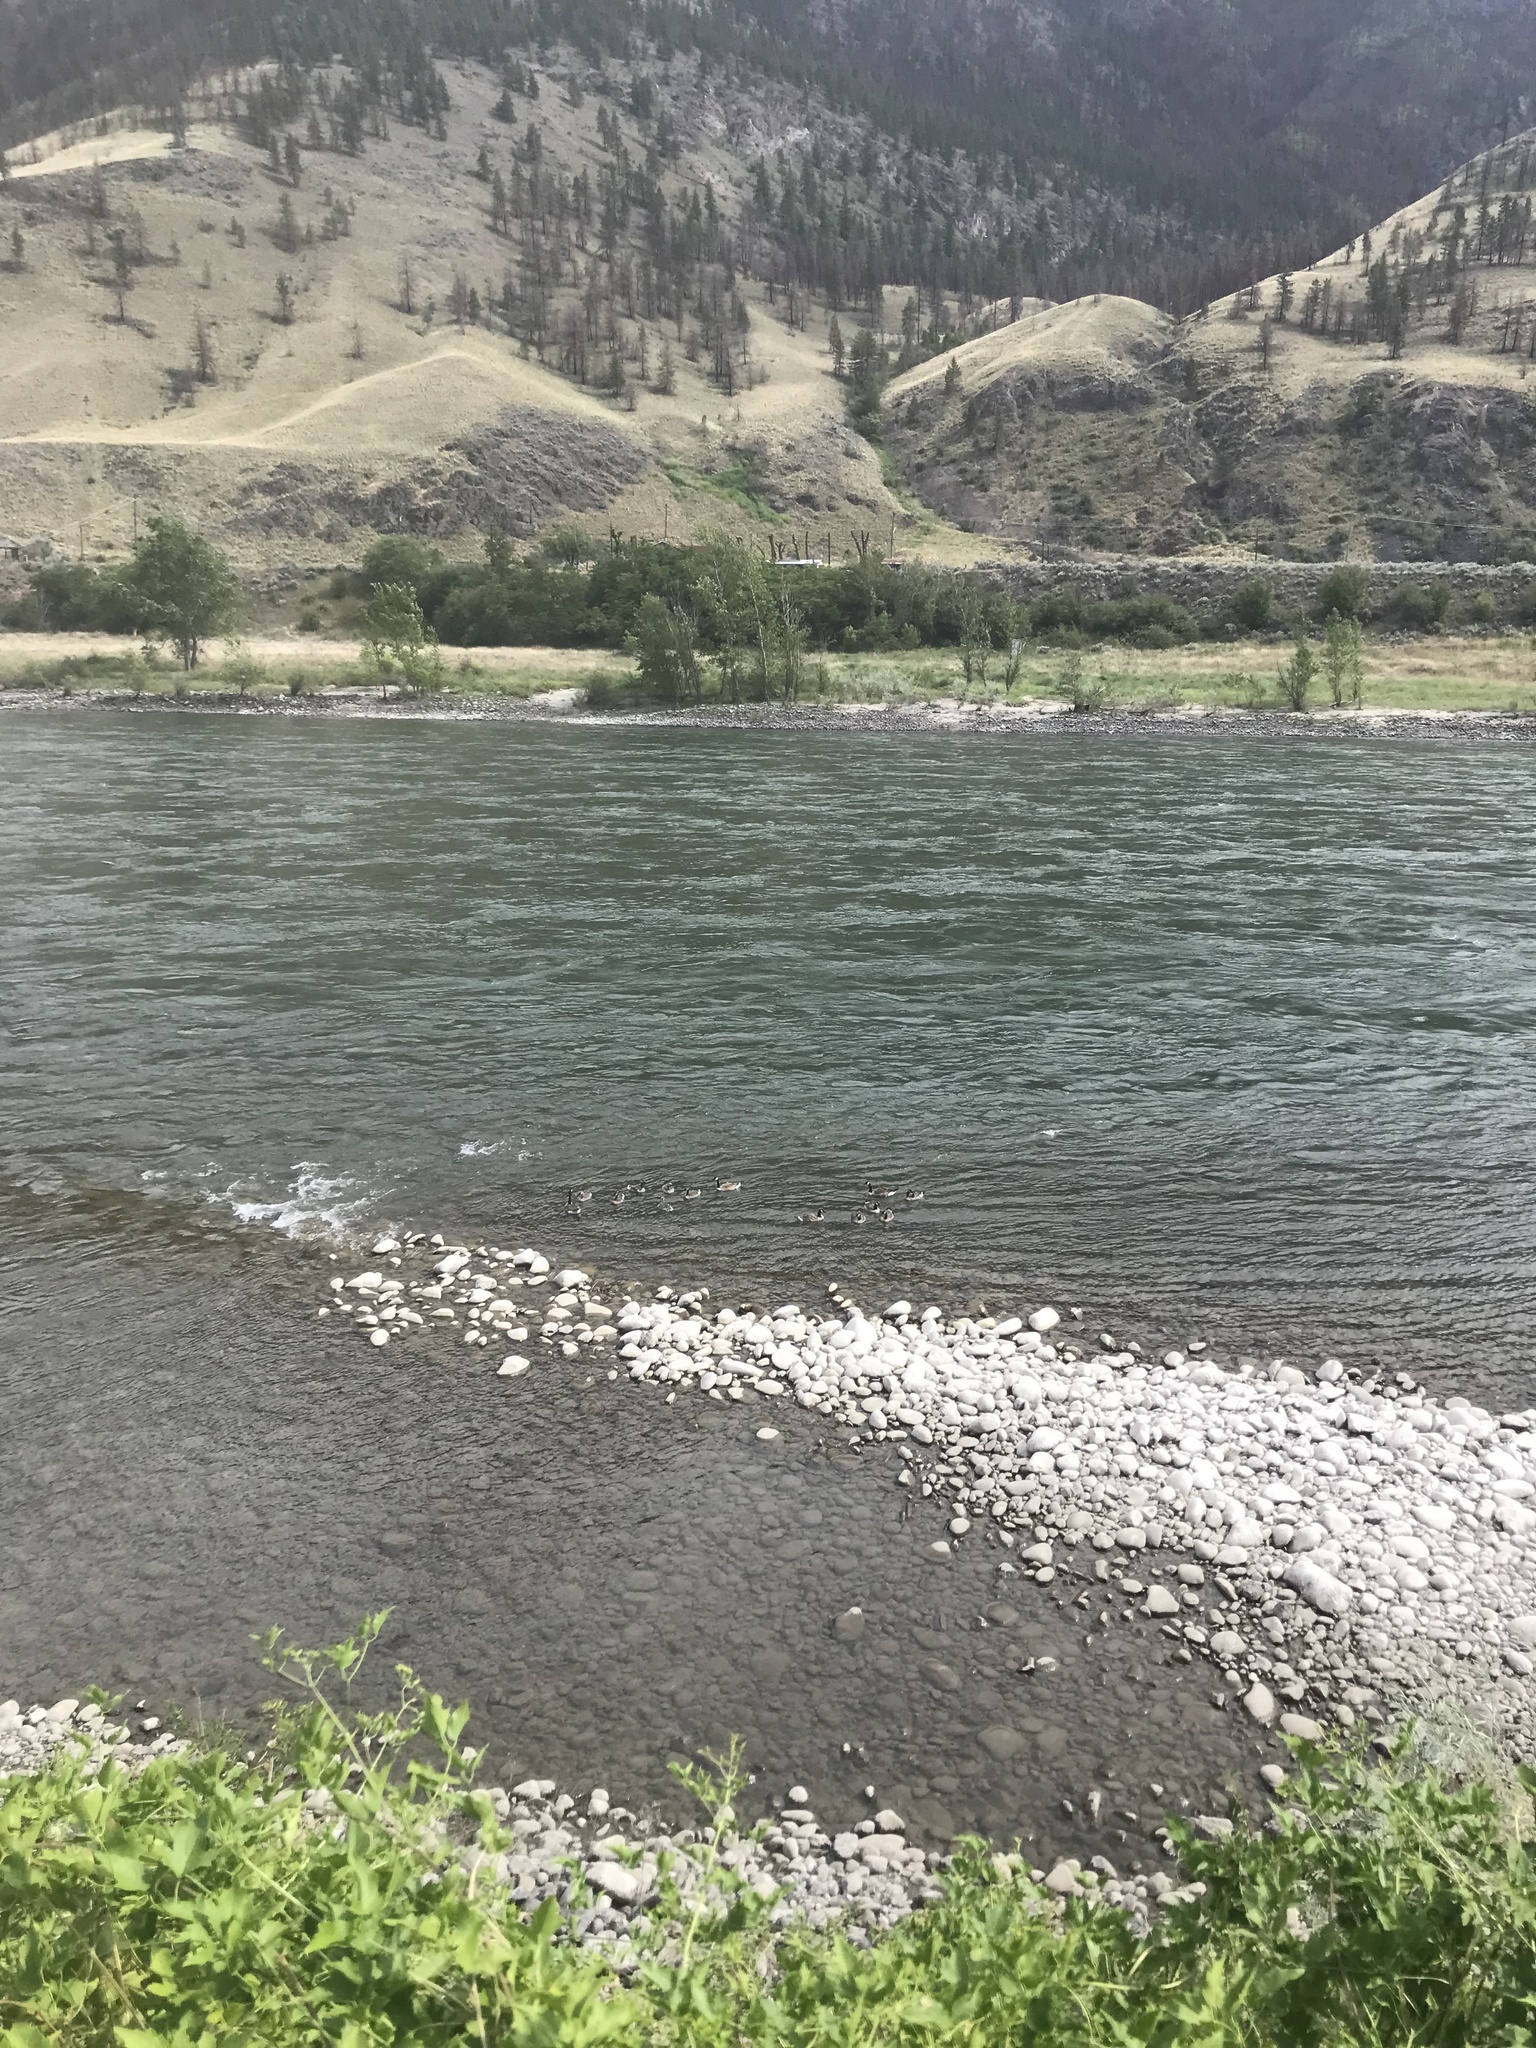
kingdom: Animalia
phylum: Chordata
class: Aves
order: Anseriformes
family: Anatidae
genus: Branta
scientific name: Branta canadensis
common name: Canada goose
